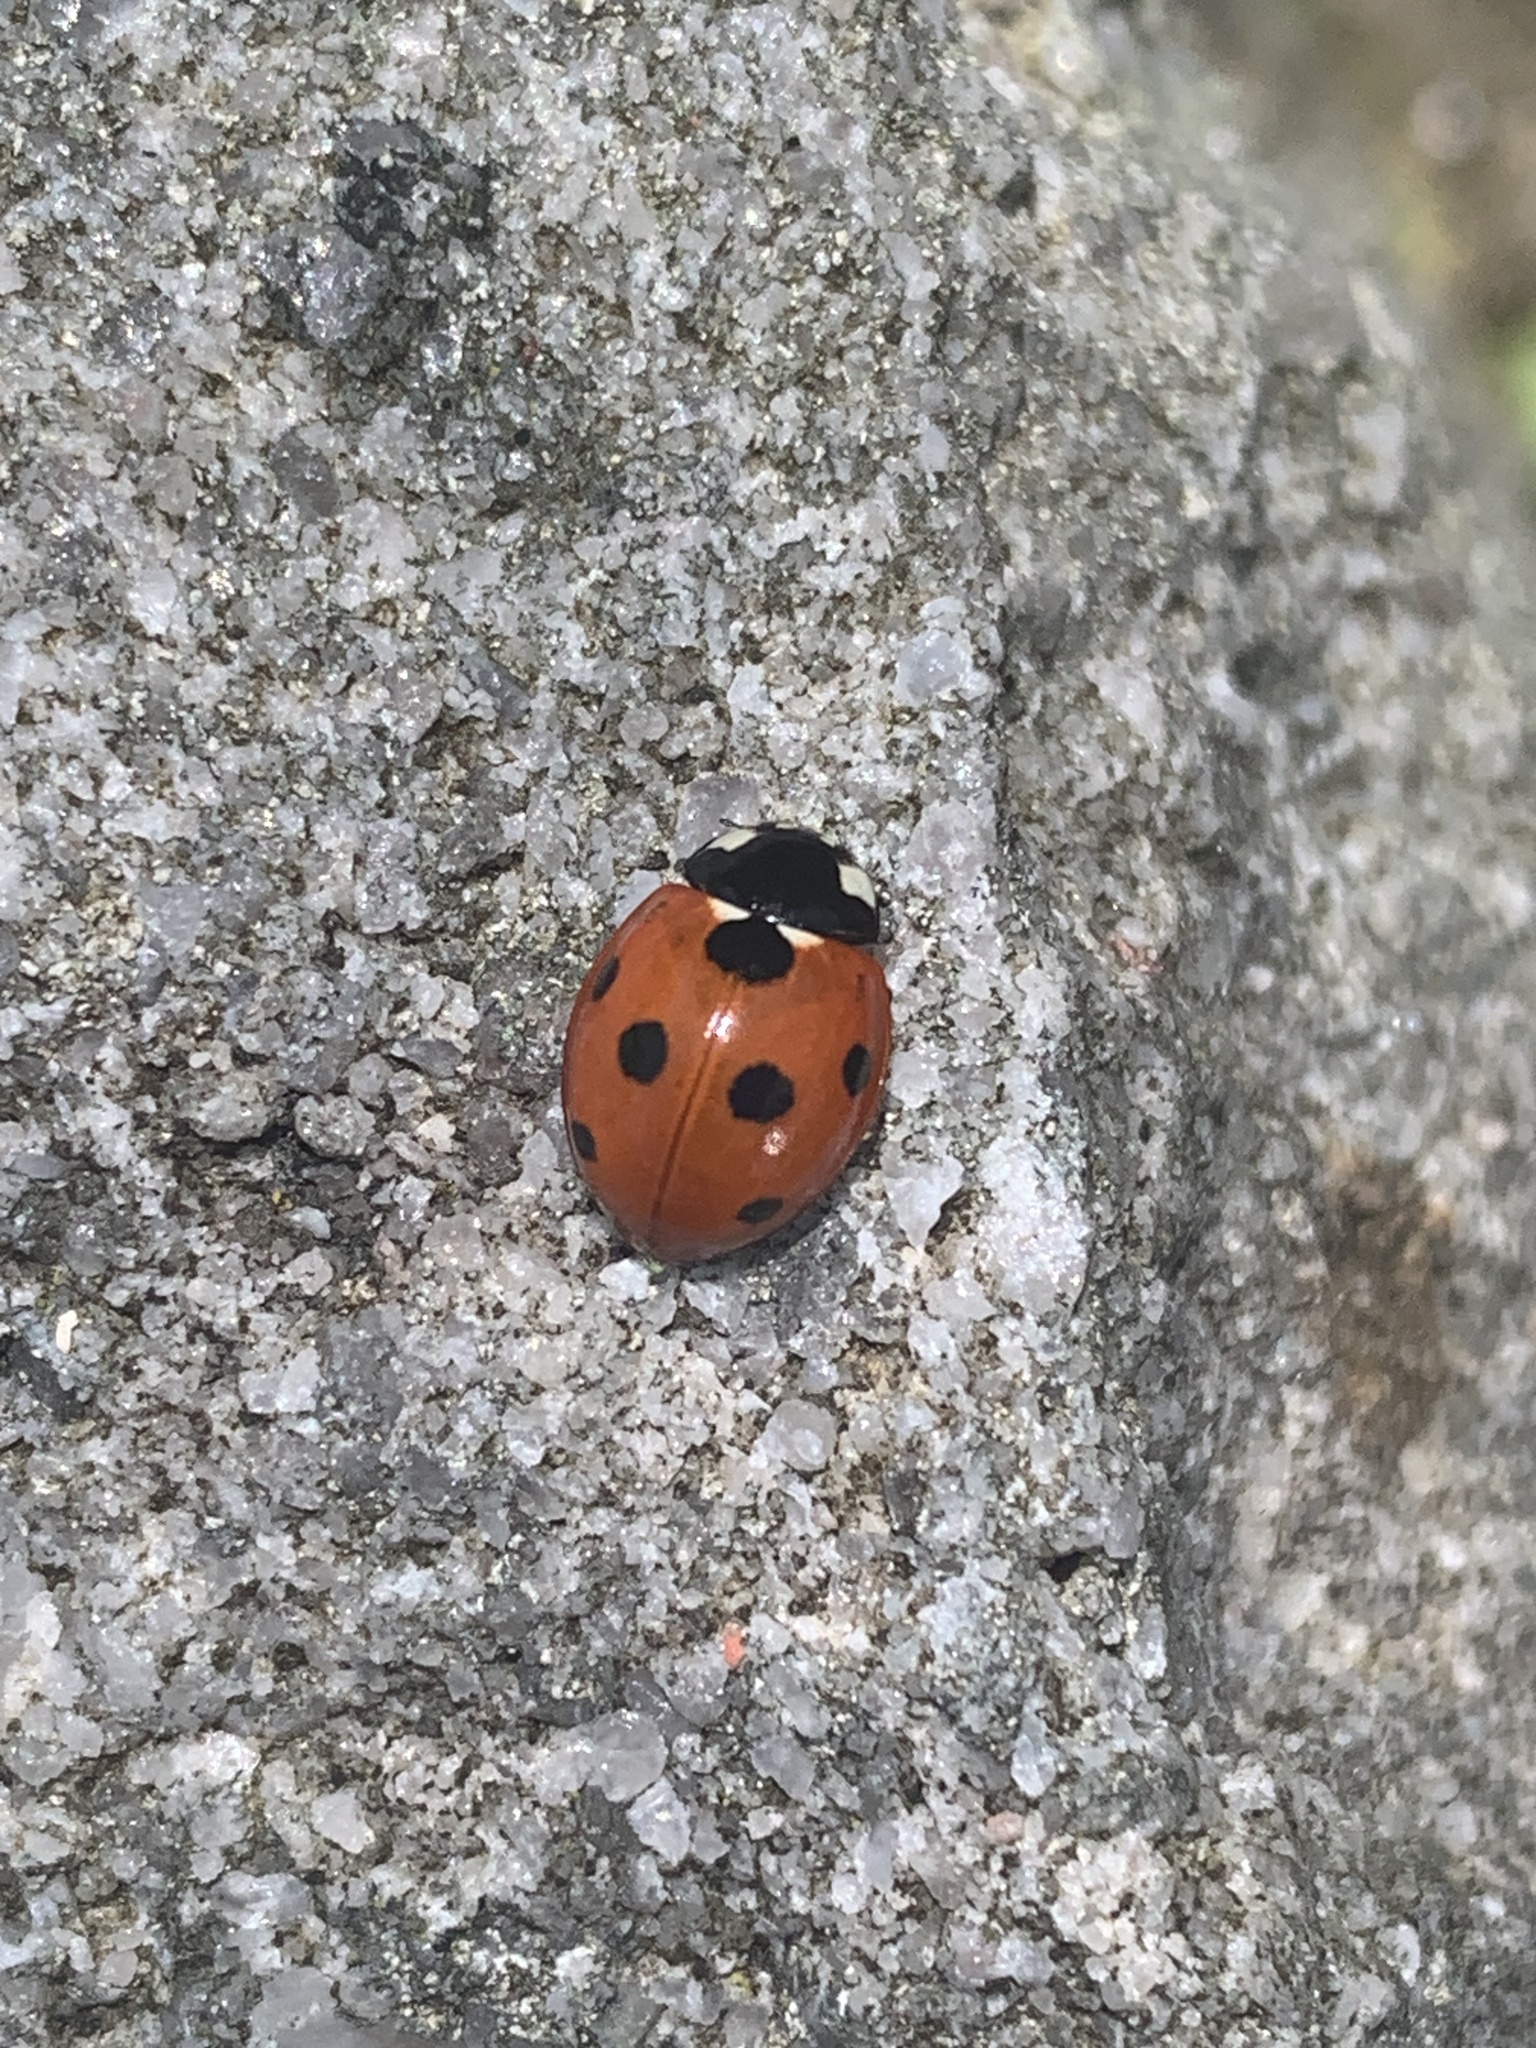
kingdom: Animalia
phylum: Arthropoda
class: Insecta
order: Coleoptera
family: Coccinellidae
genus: Coccinella
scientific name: Coccinella septempunctata
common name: Sevenspotted lady beetle
